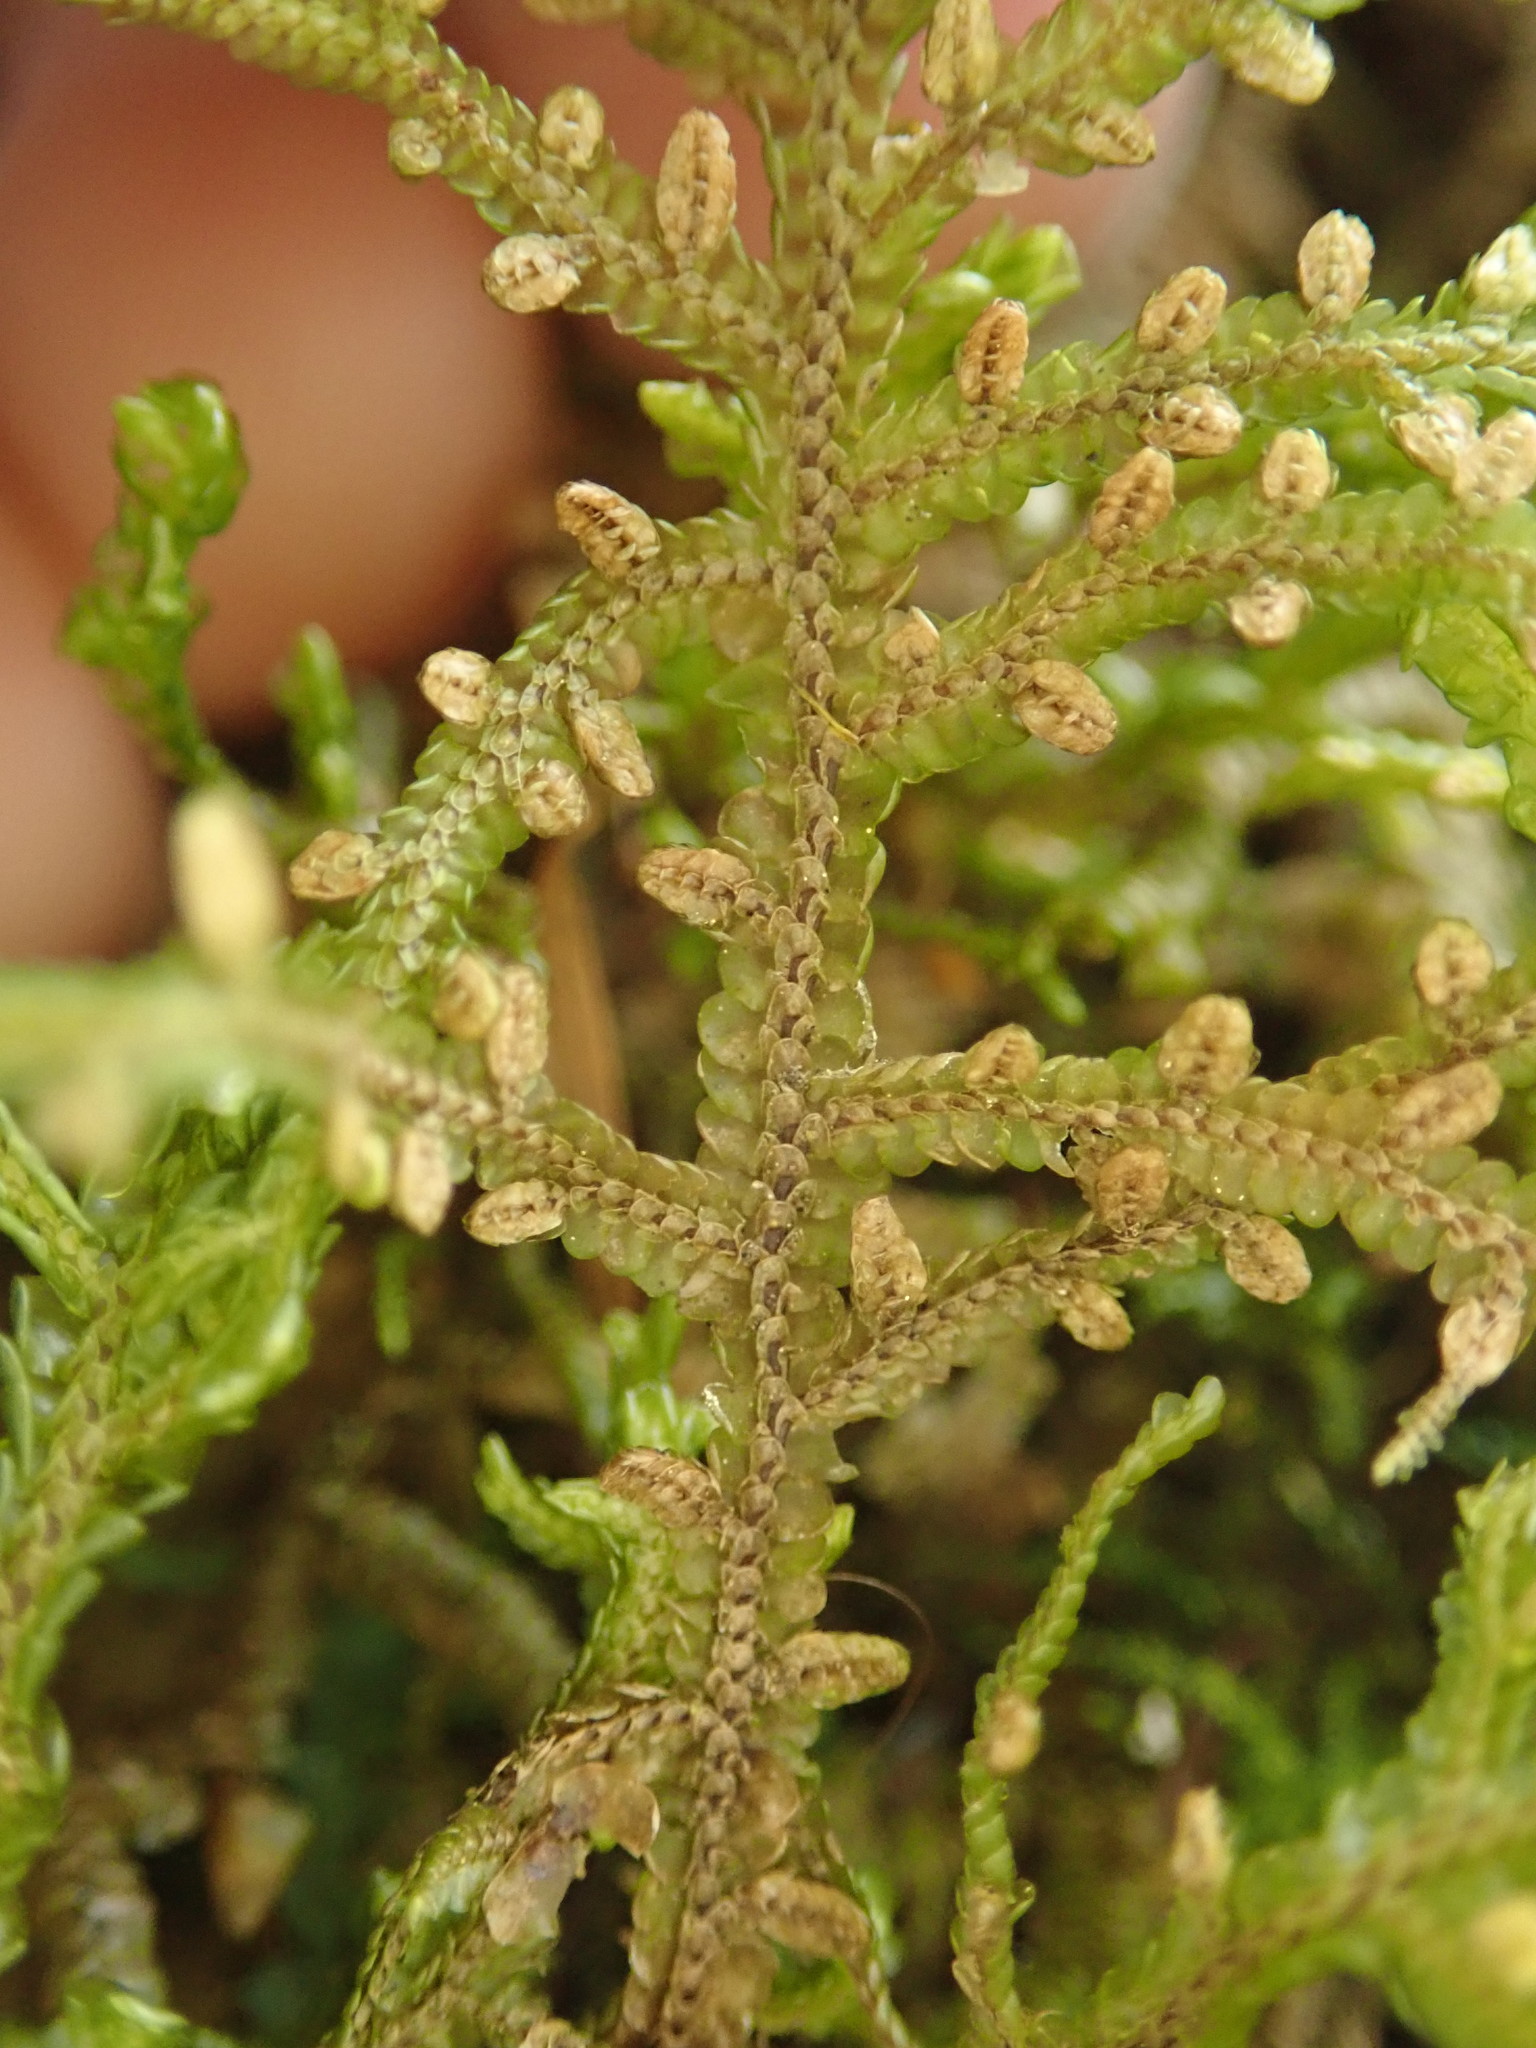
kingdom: Plantae
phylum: Marchantiophyta
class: Jungermanniopsida
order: Porellales
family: Porellaceae
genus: Porella
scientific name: Porella navicularis
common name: Tree ruffle liverwort
